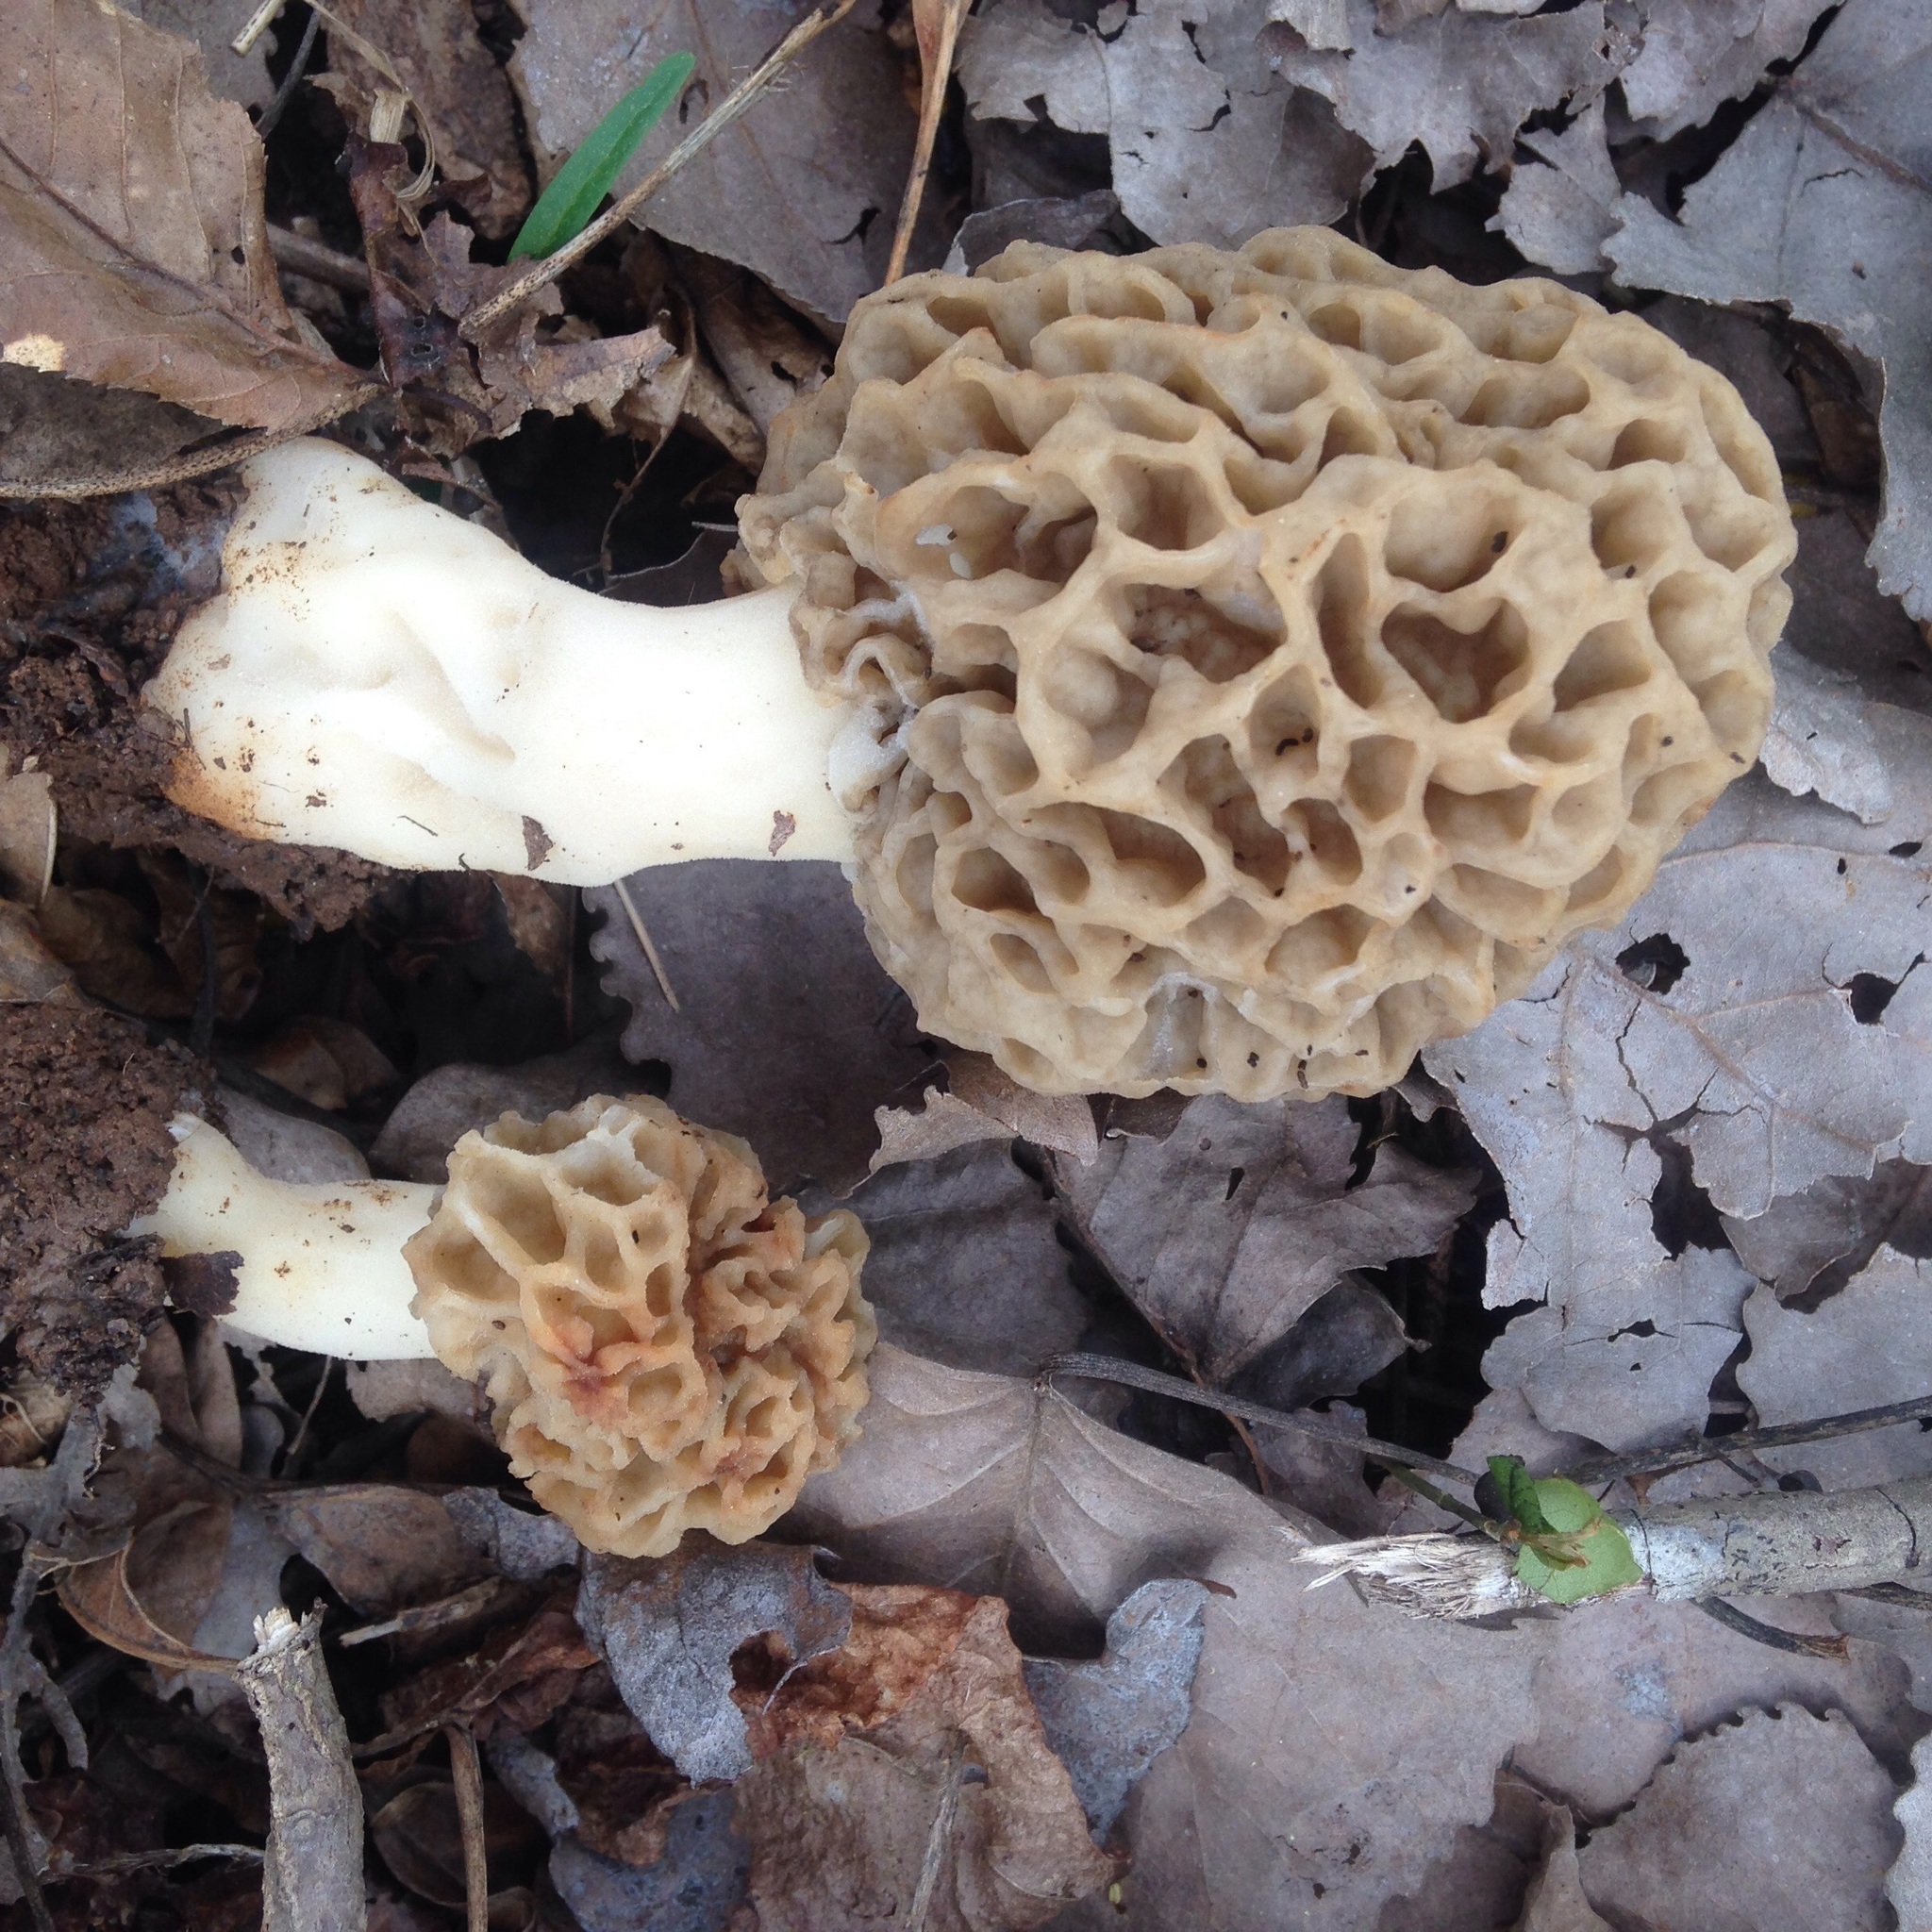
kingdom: Fungi
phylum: Ascomycota
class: Pezizomycetes
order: Pezizales
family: Morchellaceae
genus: Morchella
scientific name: Morchella americana
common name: White morel
